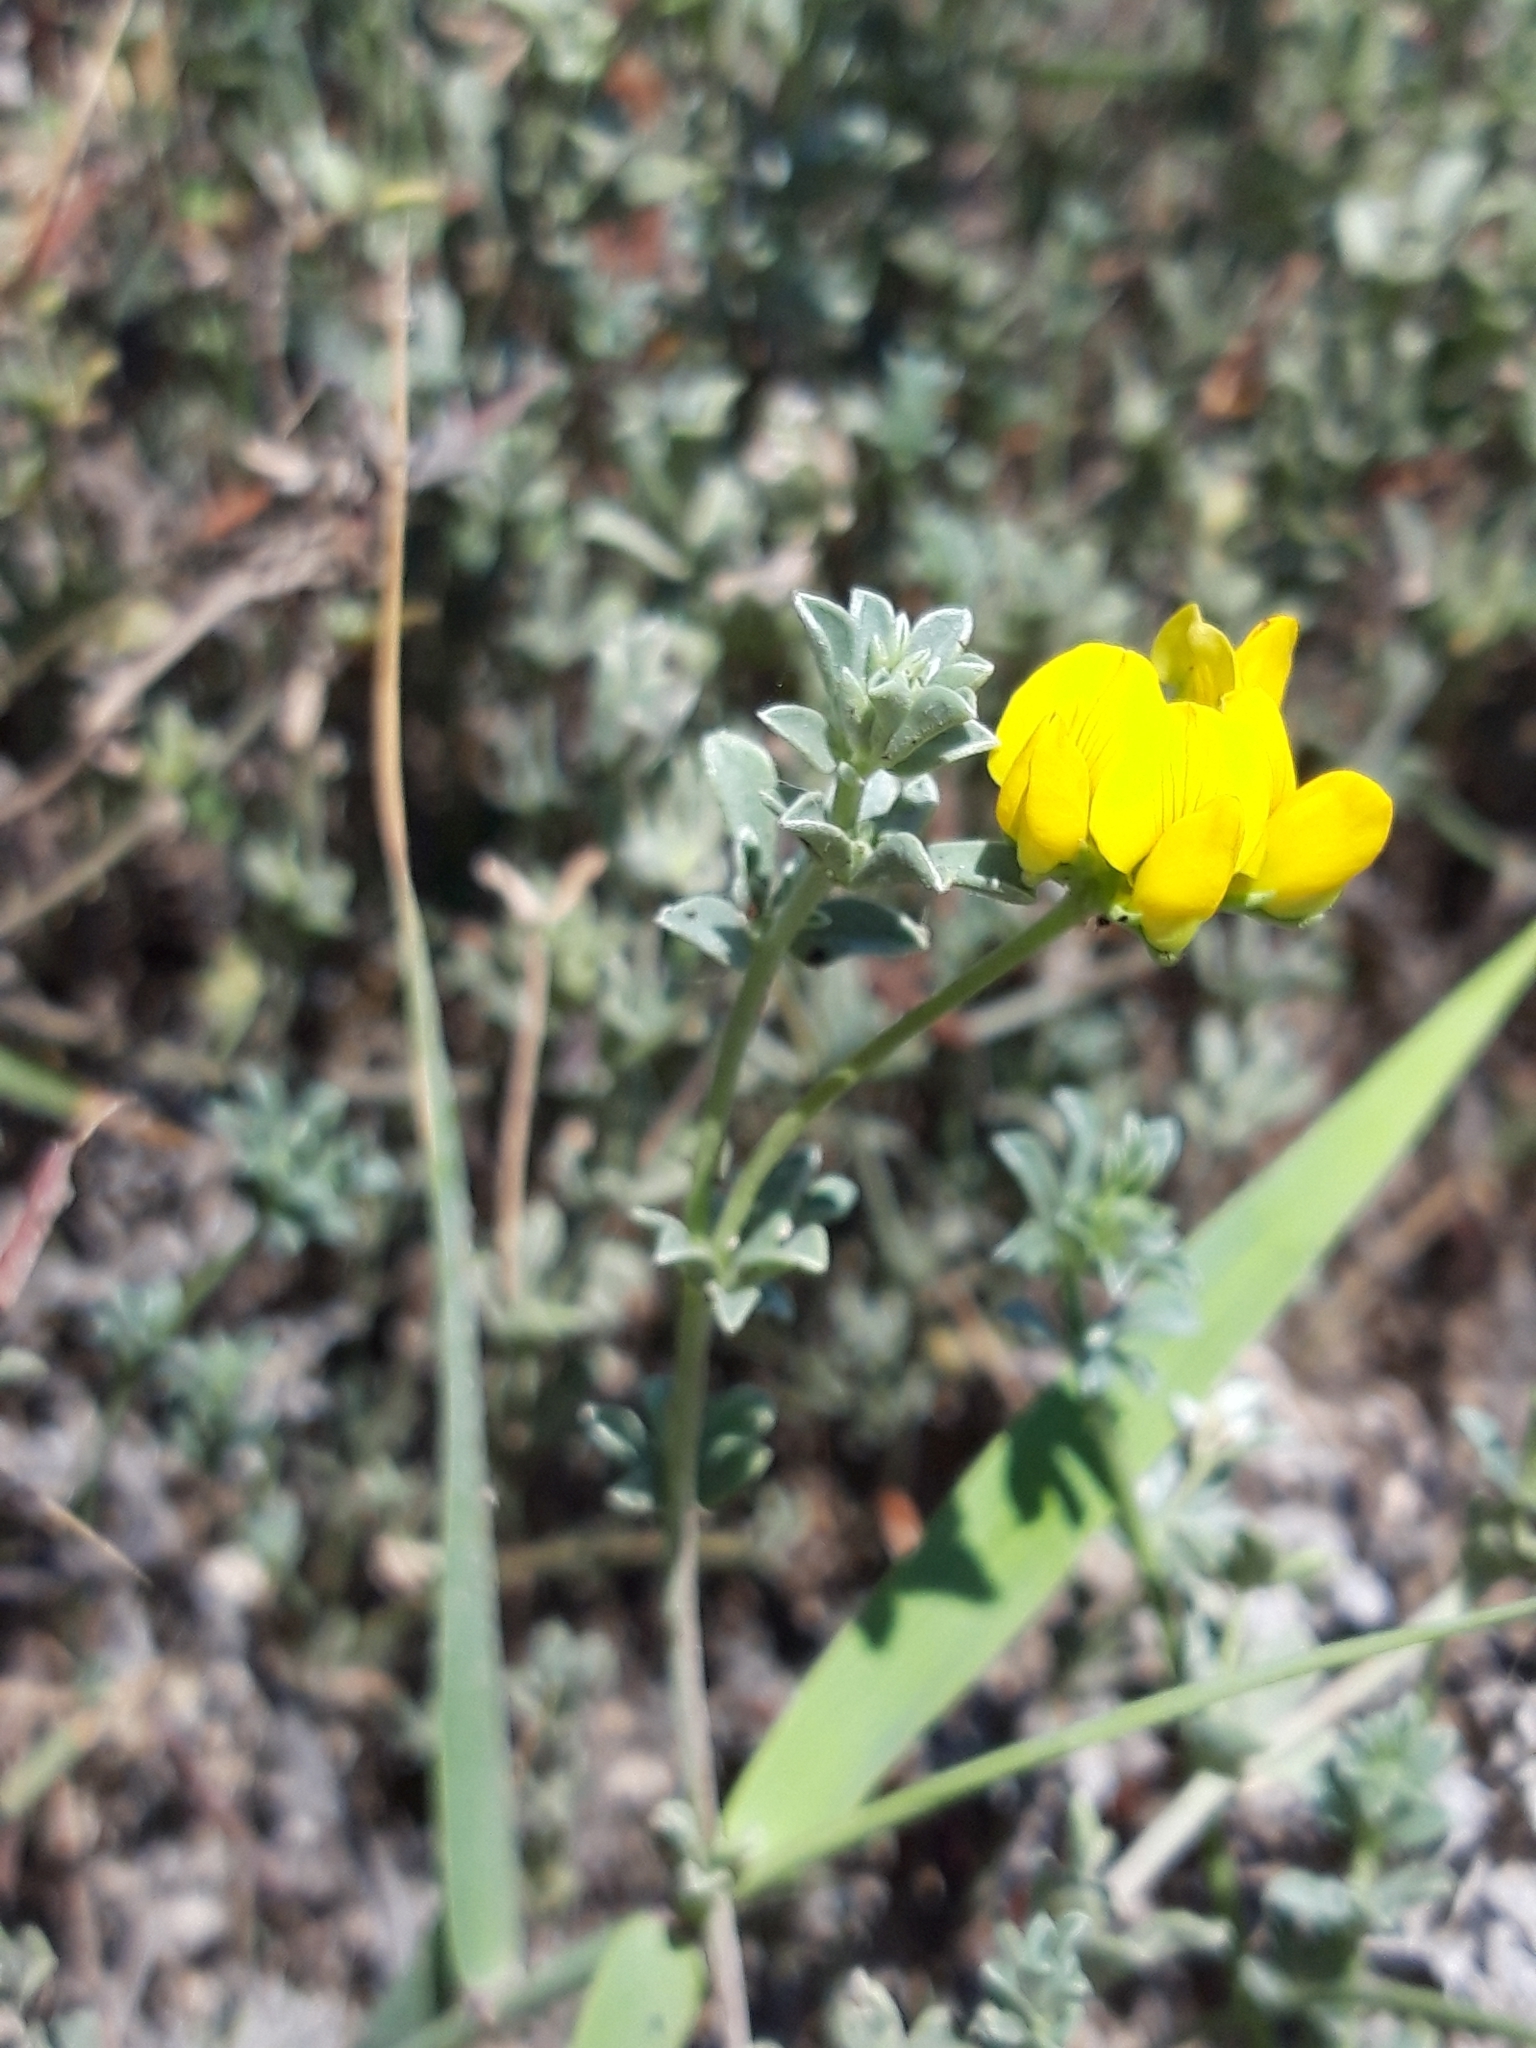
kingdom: Plantae
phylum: Tracheophyta
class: Magnoliopsida
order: Fabales
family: Fabaceae
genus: Lotus
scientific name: Lotus creticus
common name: Cretan bird's-foot trefoil
